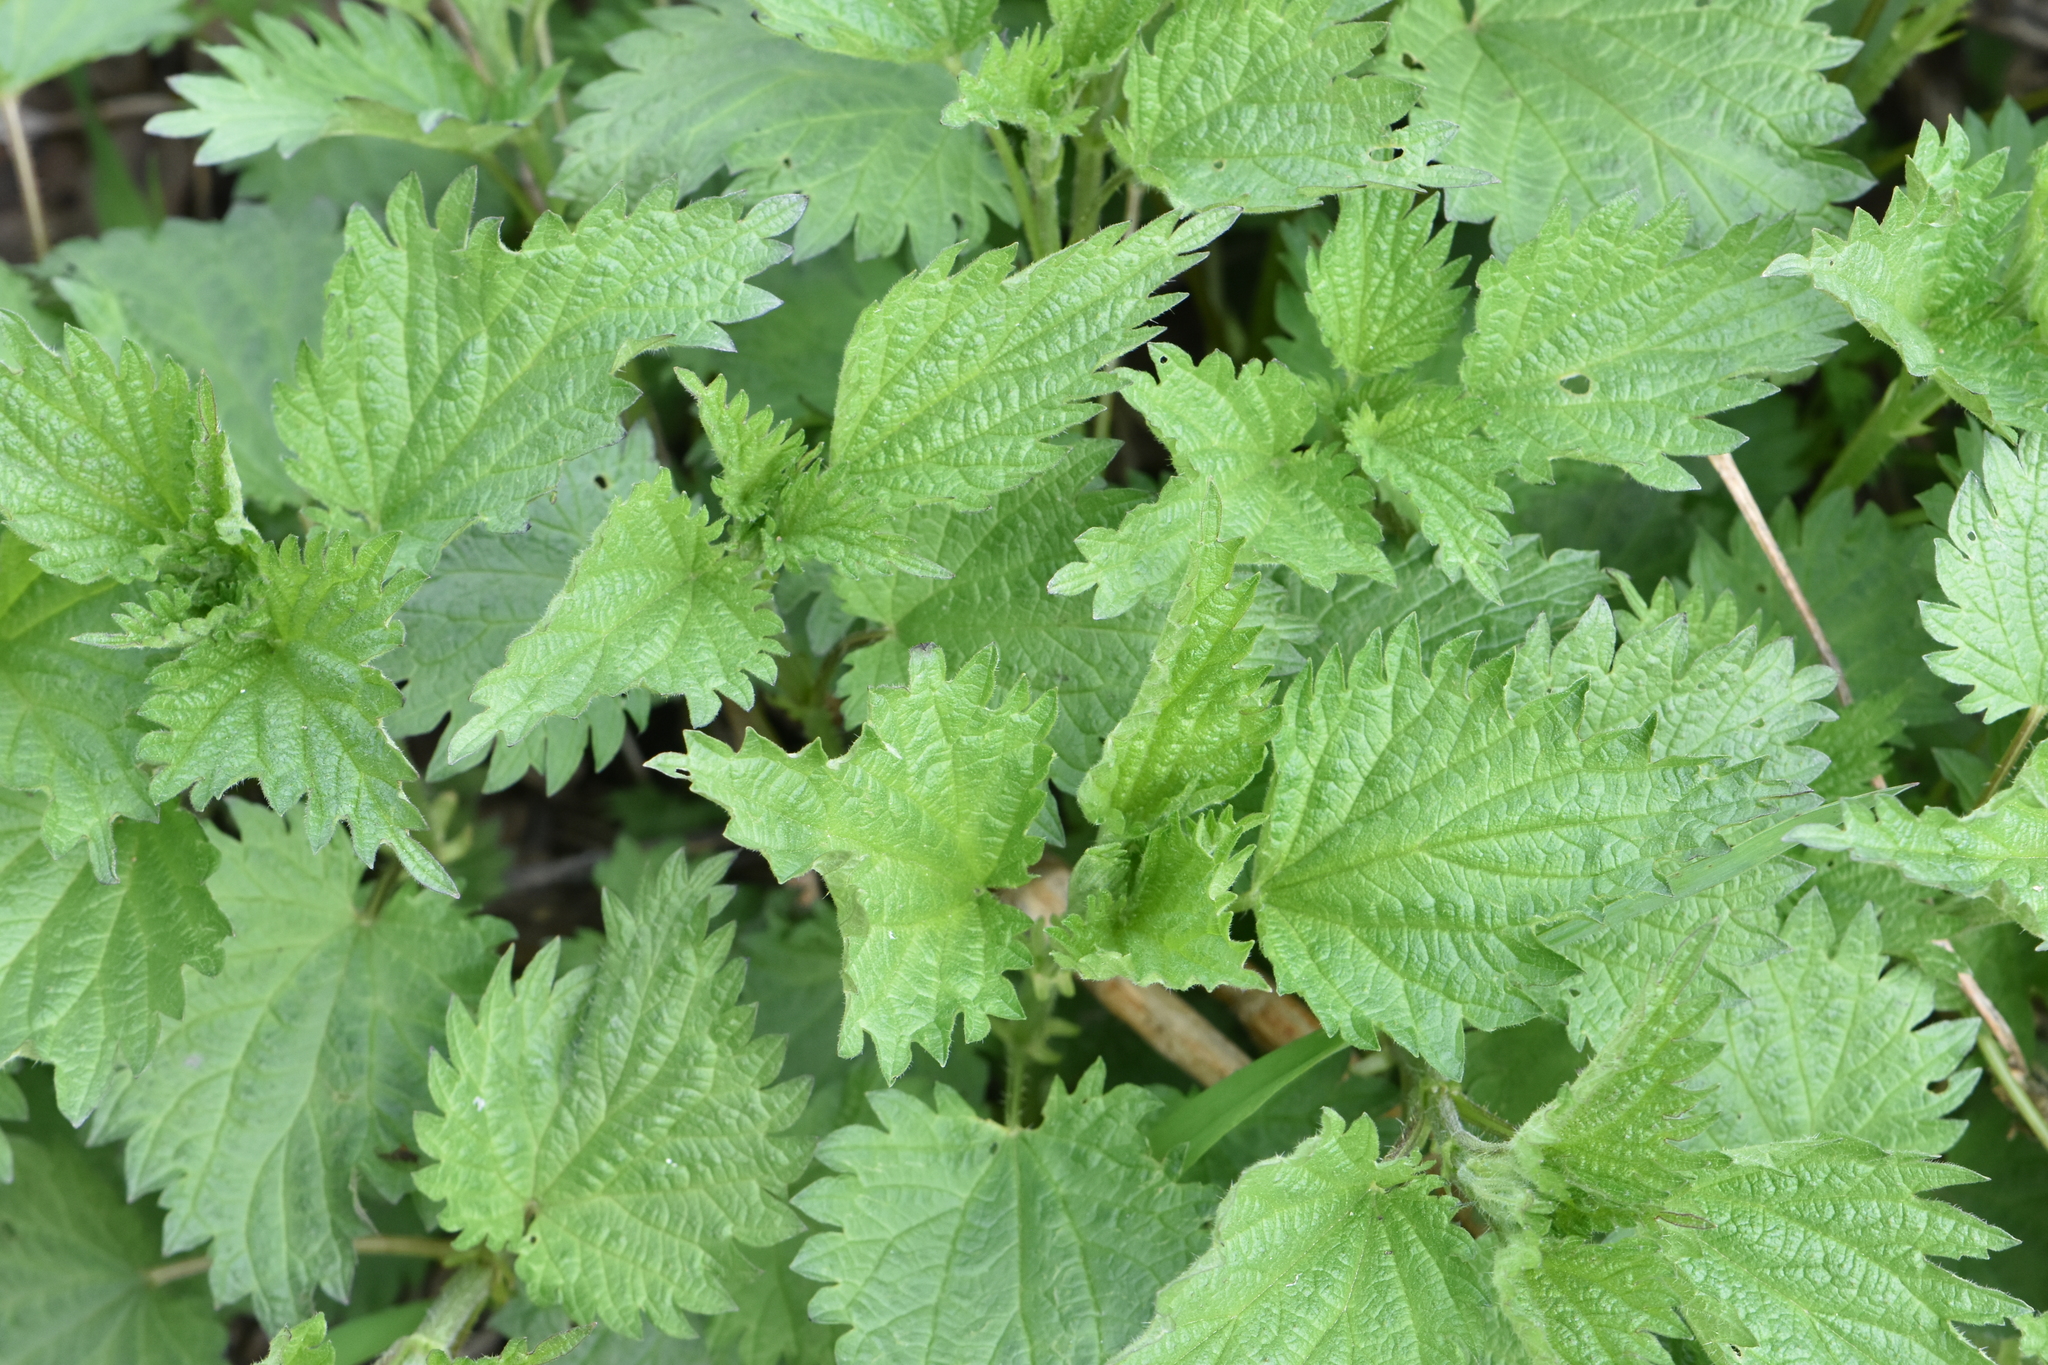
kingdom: Plantae
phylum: Tracheophyta
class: Magnoliopsida
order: Rosales
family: Urticaceae
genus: Urtica
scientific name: Urtica dioica
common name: Common nettle
